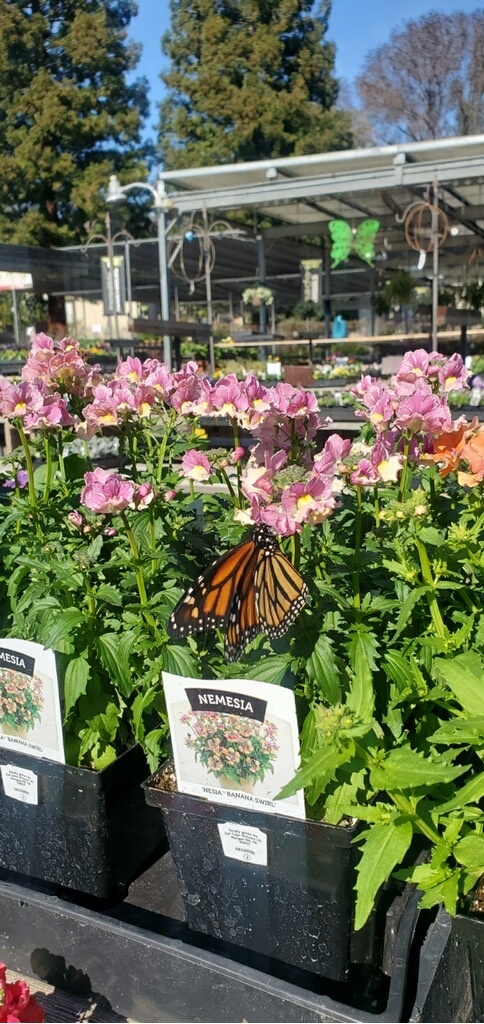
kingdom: Animalia
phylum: Arthropoda
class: Insecta
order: Lepidoptera
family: Nymphalidae
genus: Danaus
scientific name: Danaus plexippus
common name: Monarch
